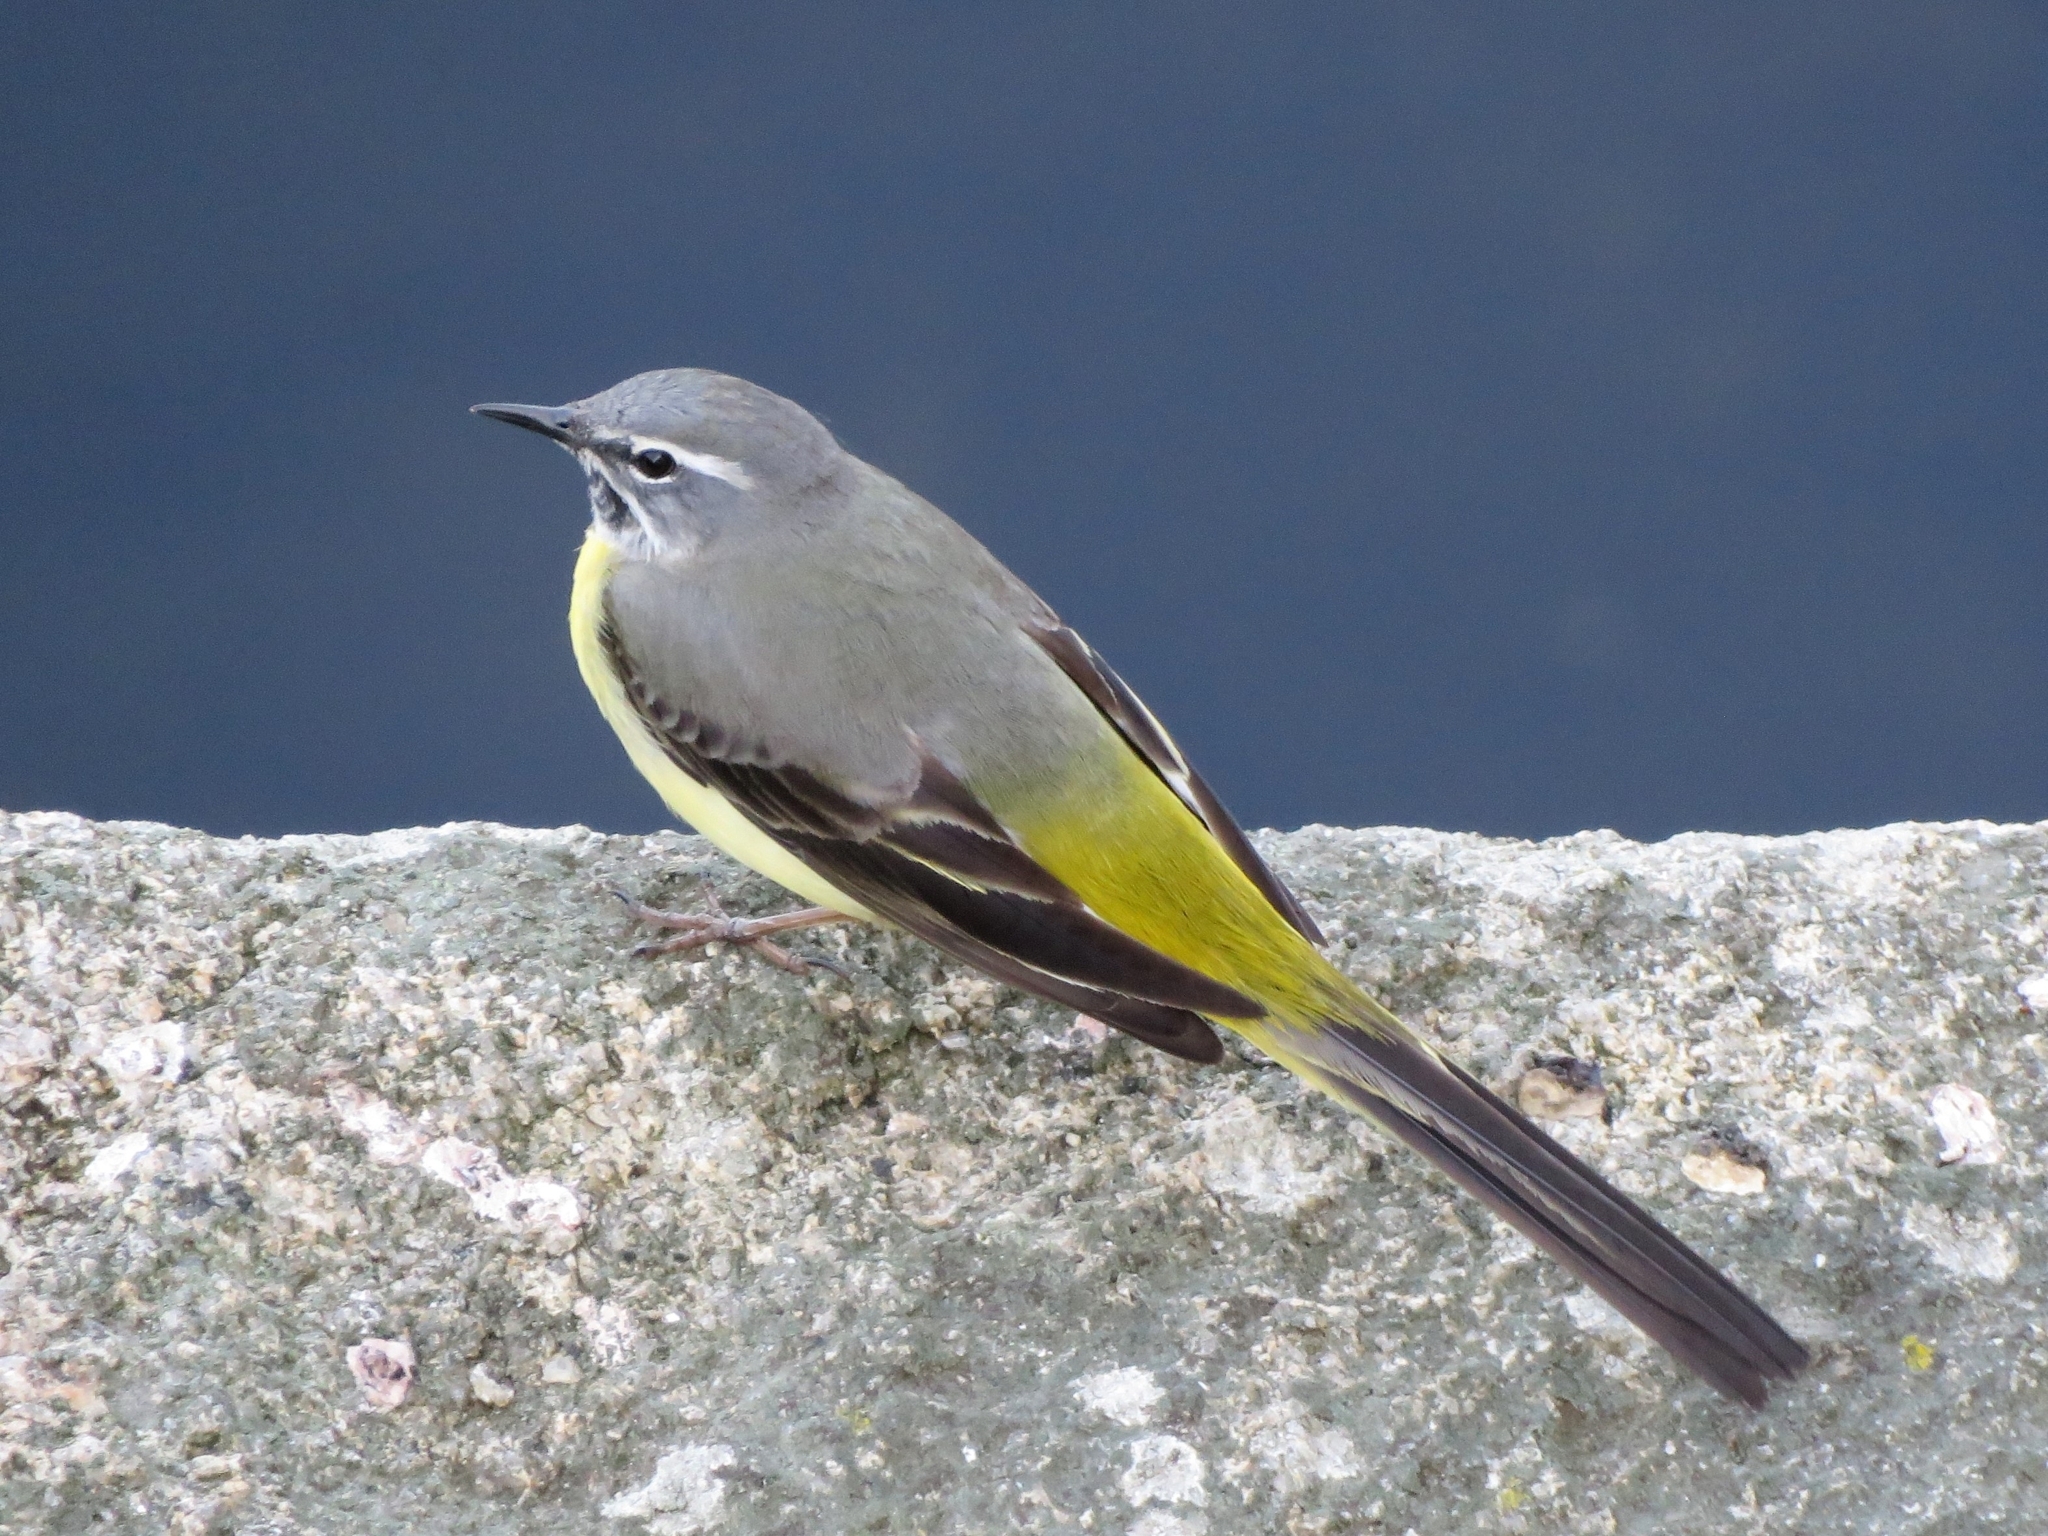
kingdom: Animalia
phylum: Chordata
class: Aves
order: Passeriformes
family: Motacillidae
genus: Motacilla
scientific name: Motacilla cinerea
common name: Grey wagtail
